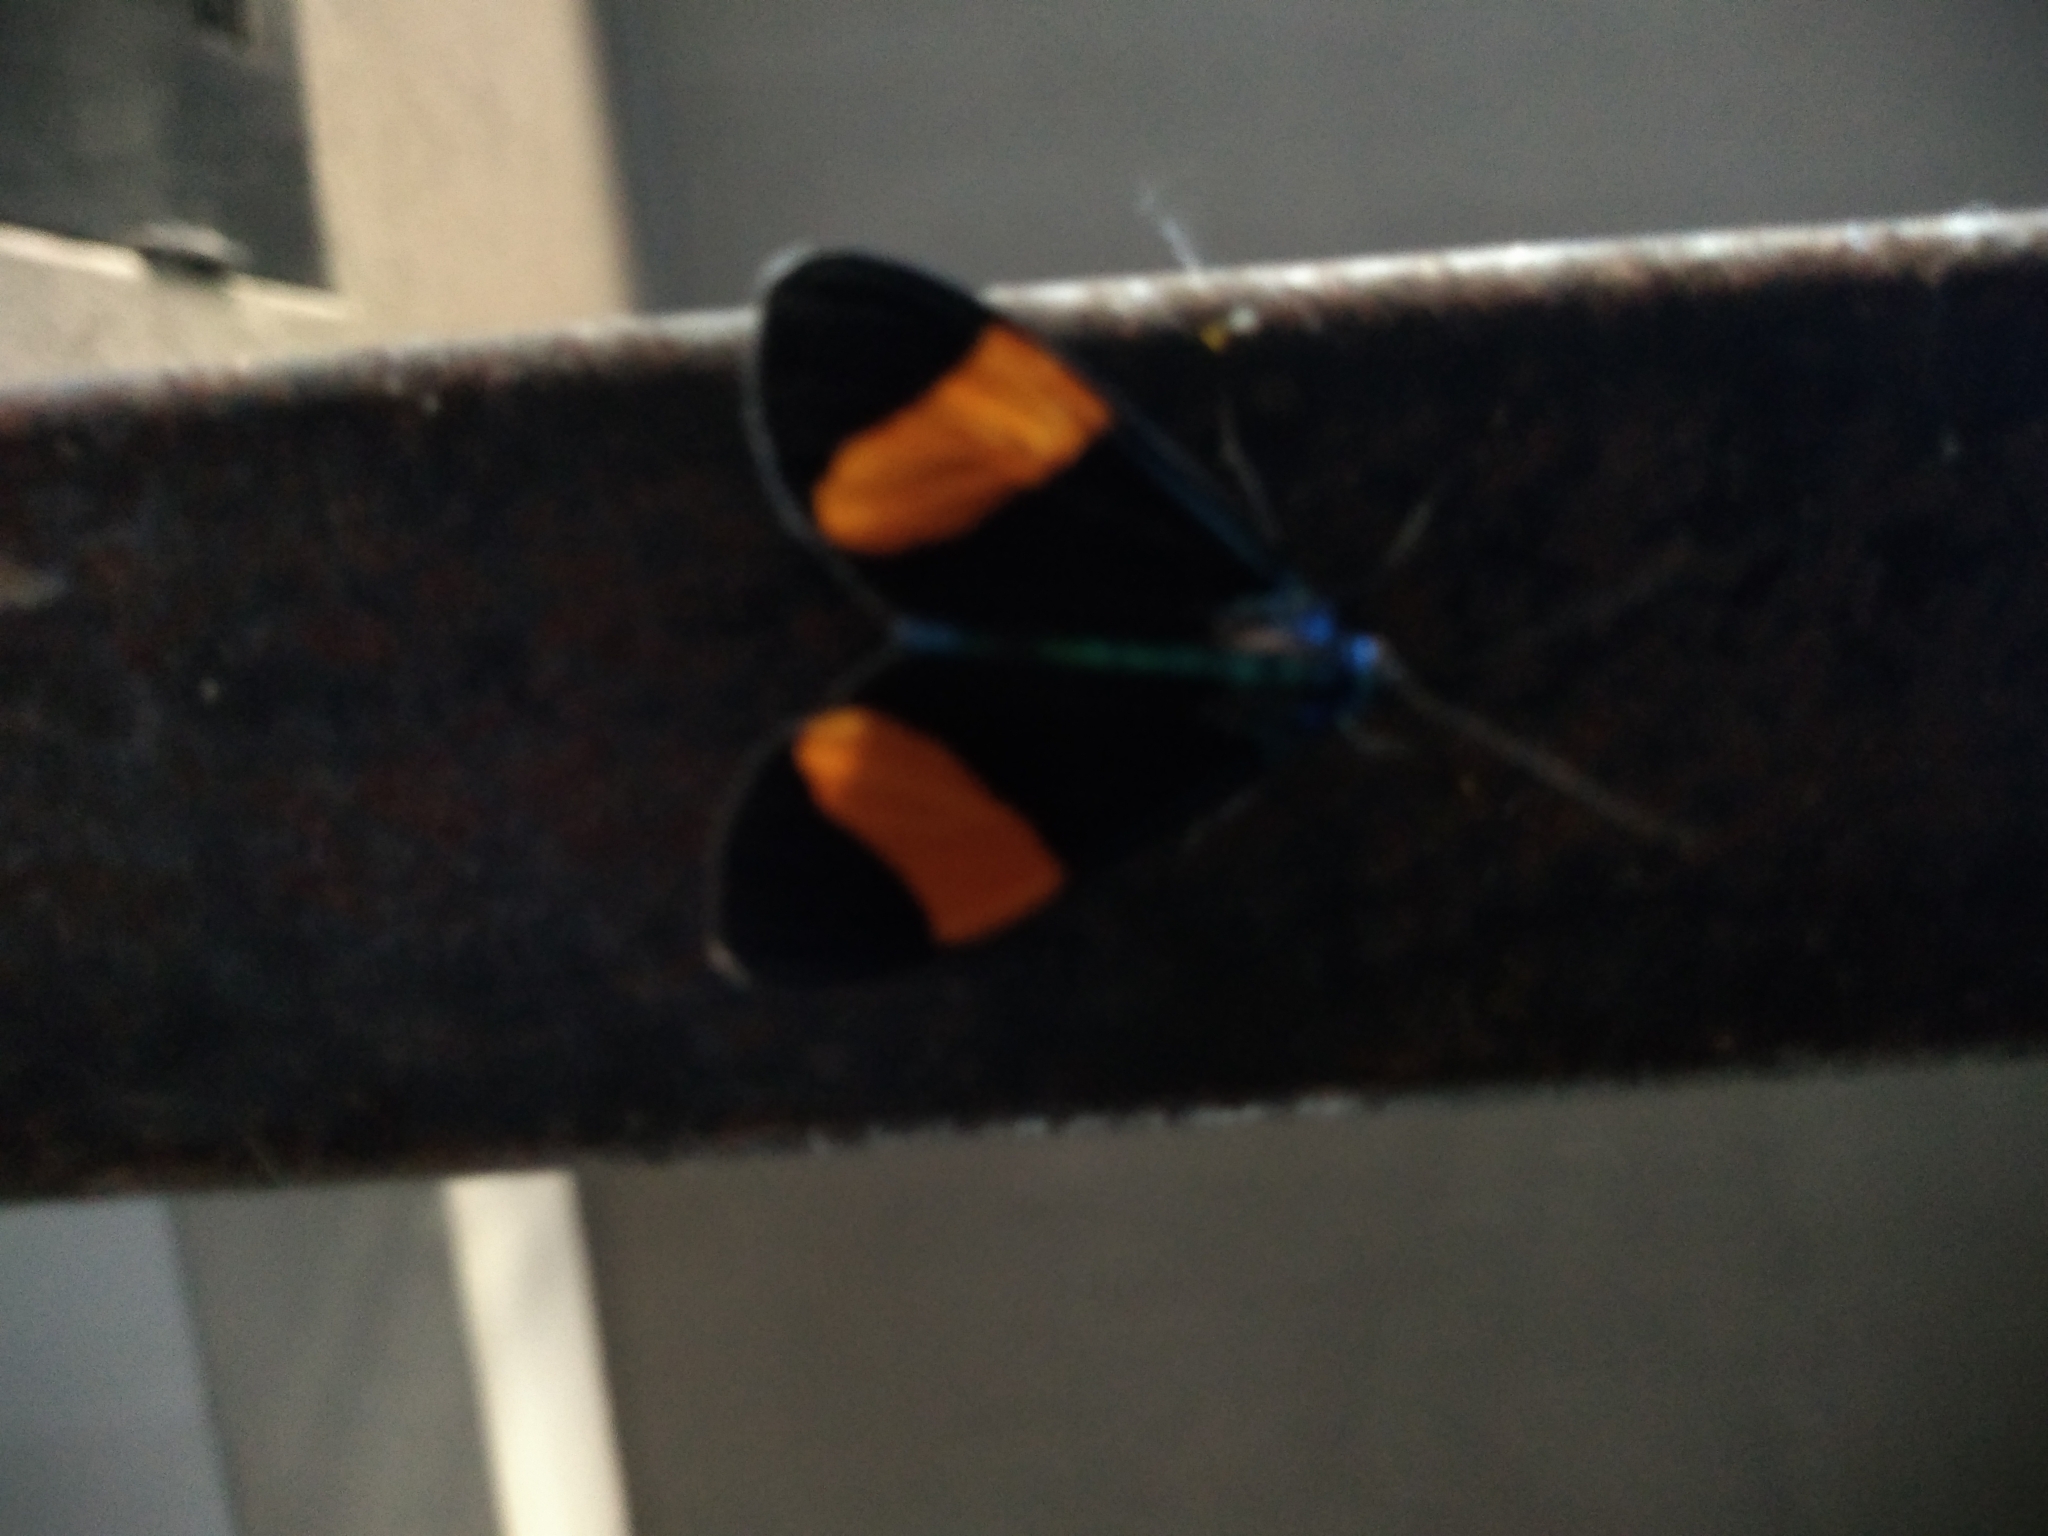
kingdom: Animalia
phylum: Arthropoda
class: Insecta
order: Lepidoptera
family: Erebidae
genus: Cyanopepla
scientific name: Cyanopepla similis
